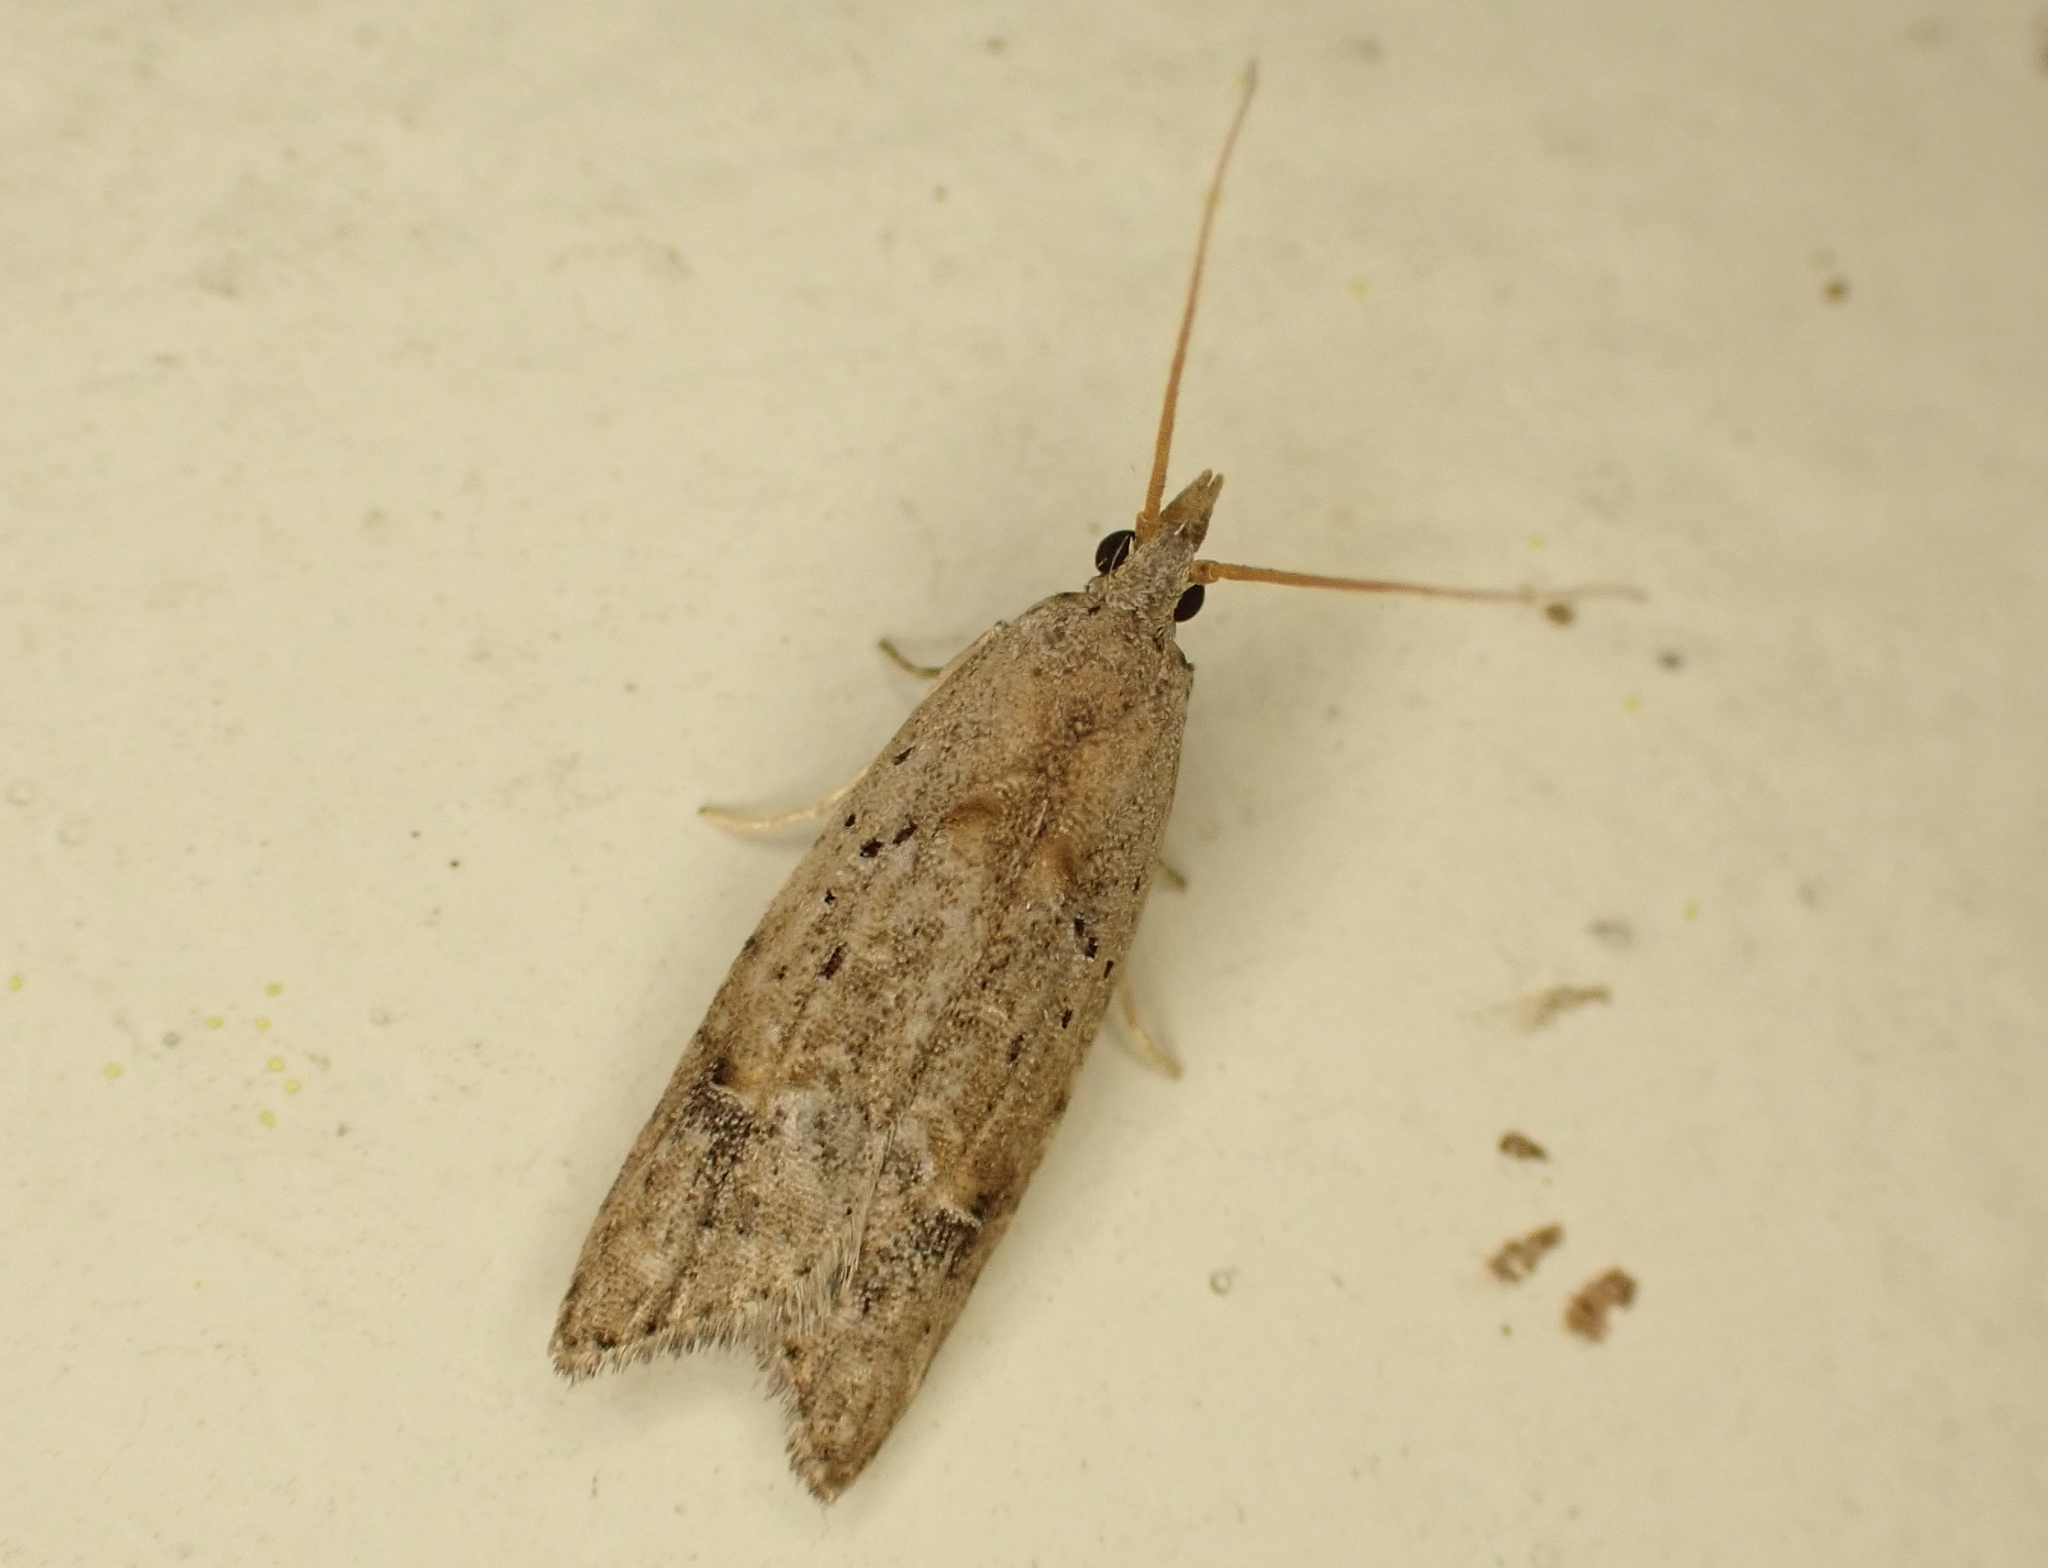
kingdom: Animalia
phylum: Arthropoda
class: Insecta
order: Lepidoptera
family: Carposinidae
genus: Carposina
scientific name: Carposina rubophaga
